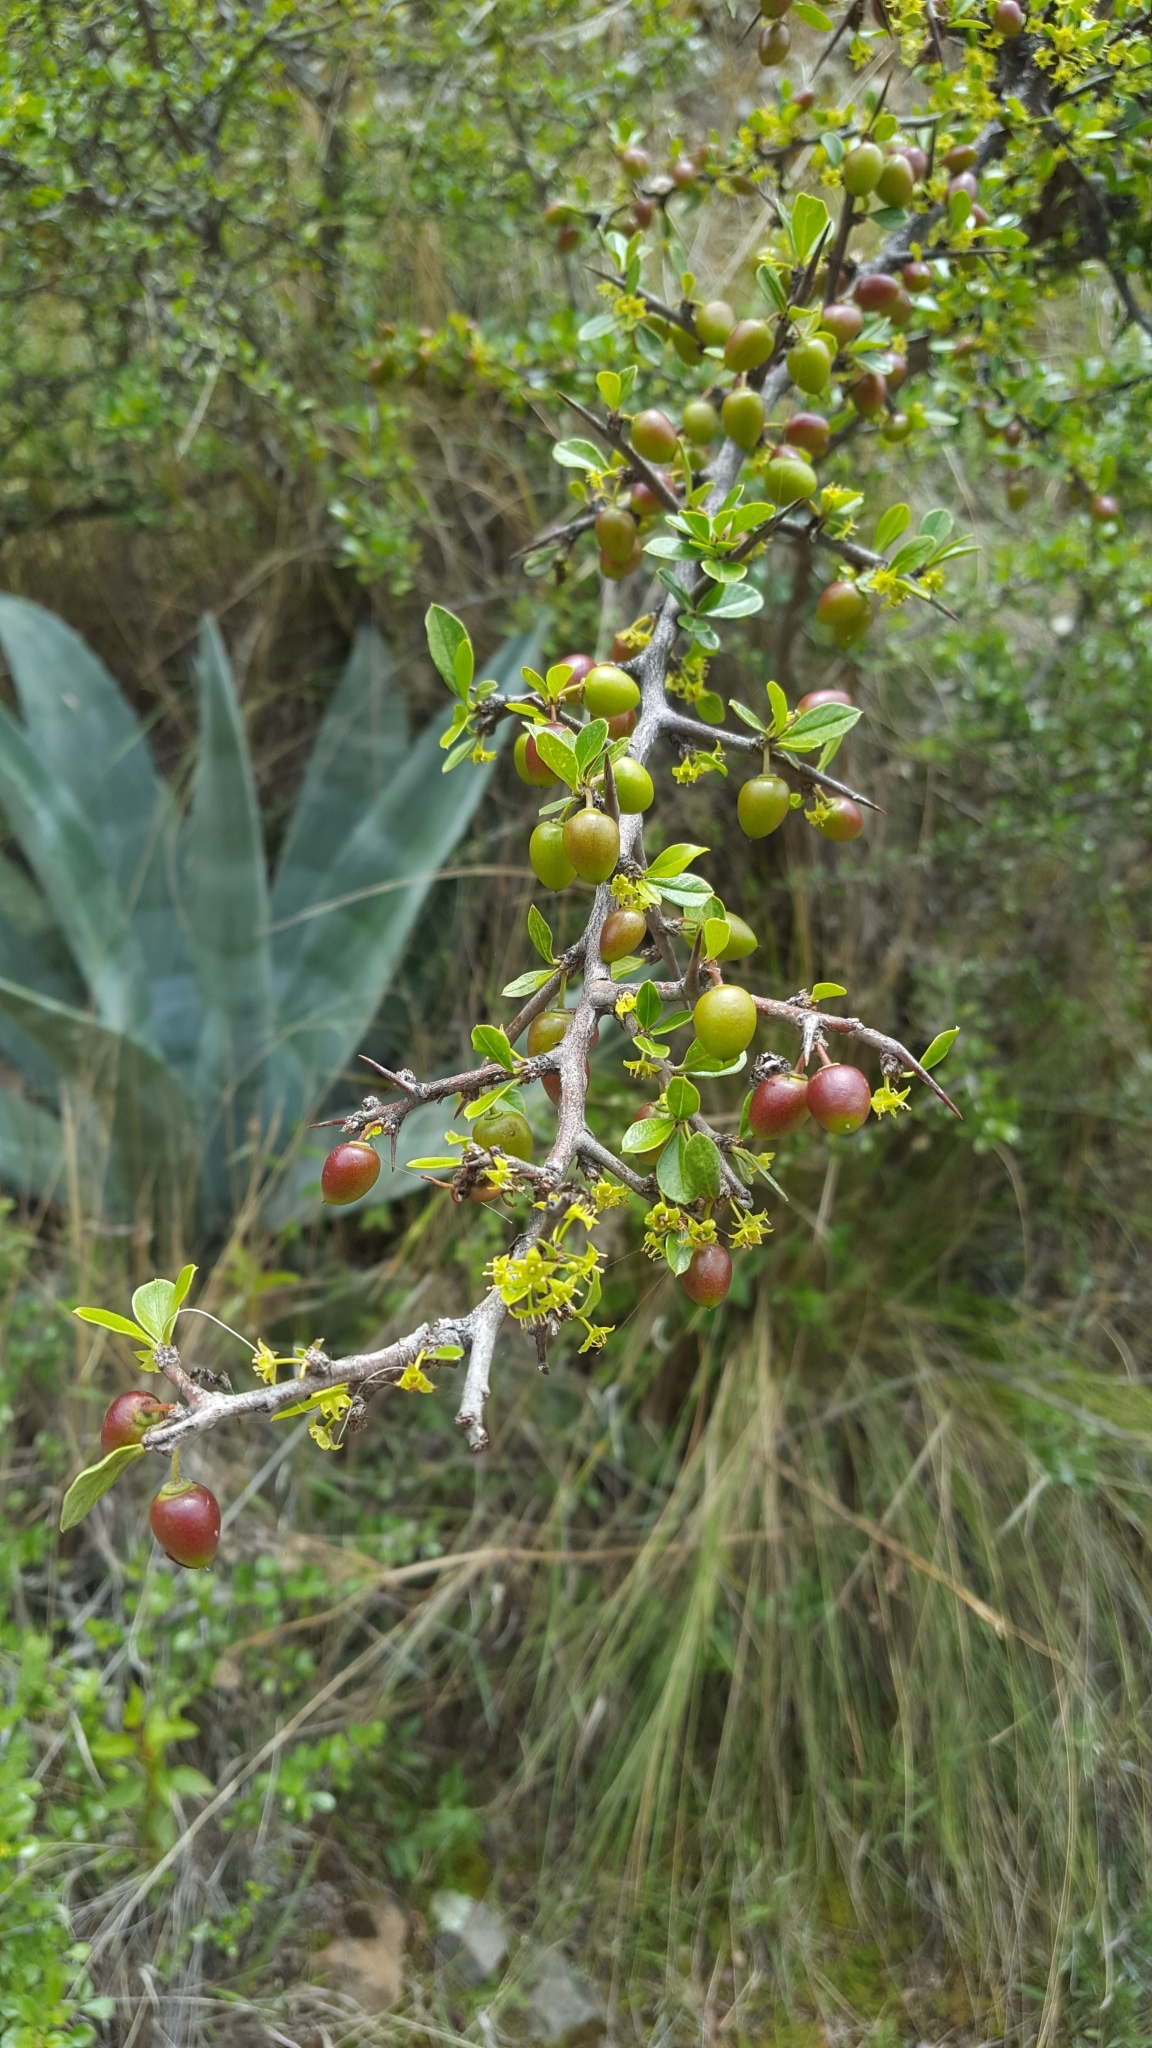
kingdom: Plantae
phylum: Tracheophyta
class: Magnoliopsida
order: Rosales
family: Rhamnaceae
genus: Condalia
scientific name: Condalia weberbaueri
